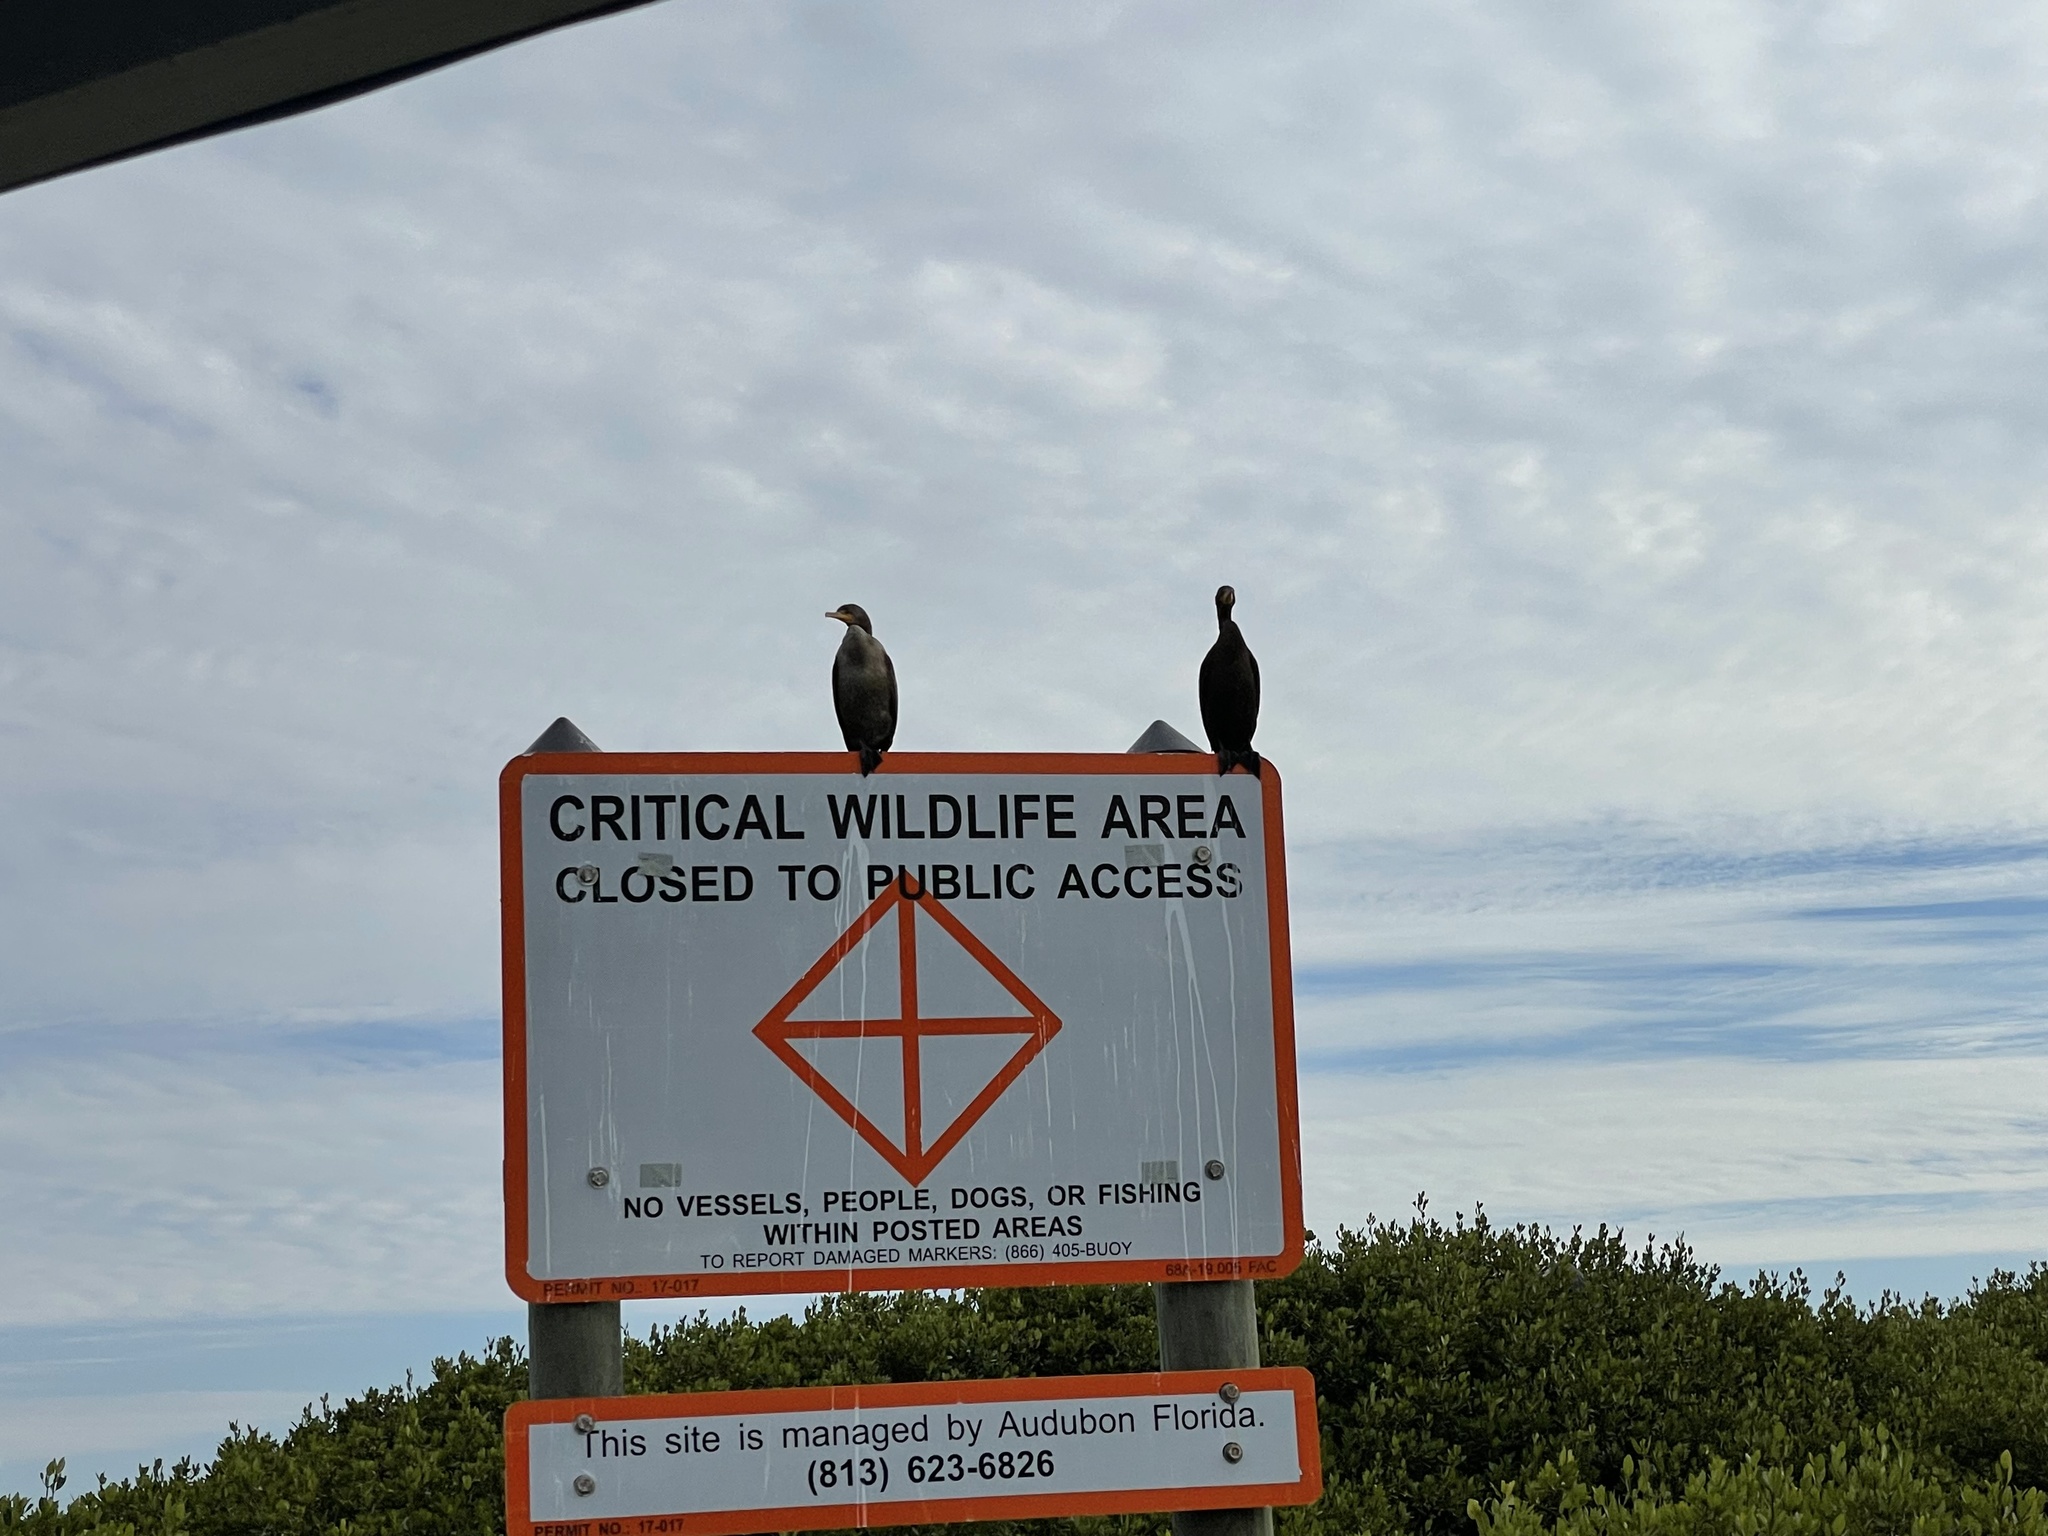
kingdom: Animalia
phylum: Chordata
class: Aves
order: Suliformes
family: Phalacrocoracidae
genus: Phalacrocorax
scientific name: Phalacrocorax auritus
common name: Double-crested cormorant
